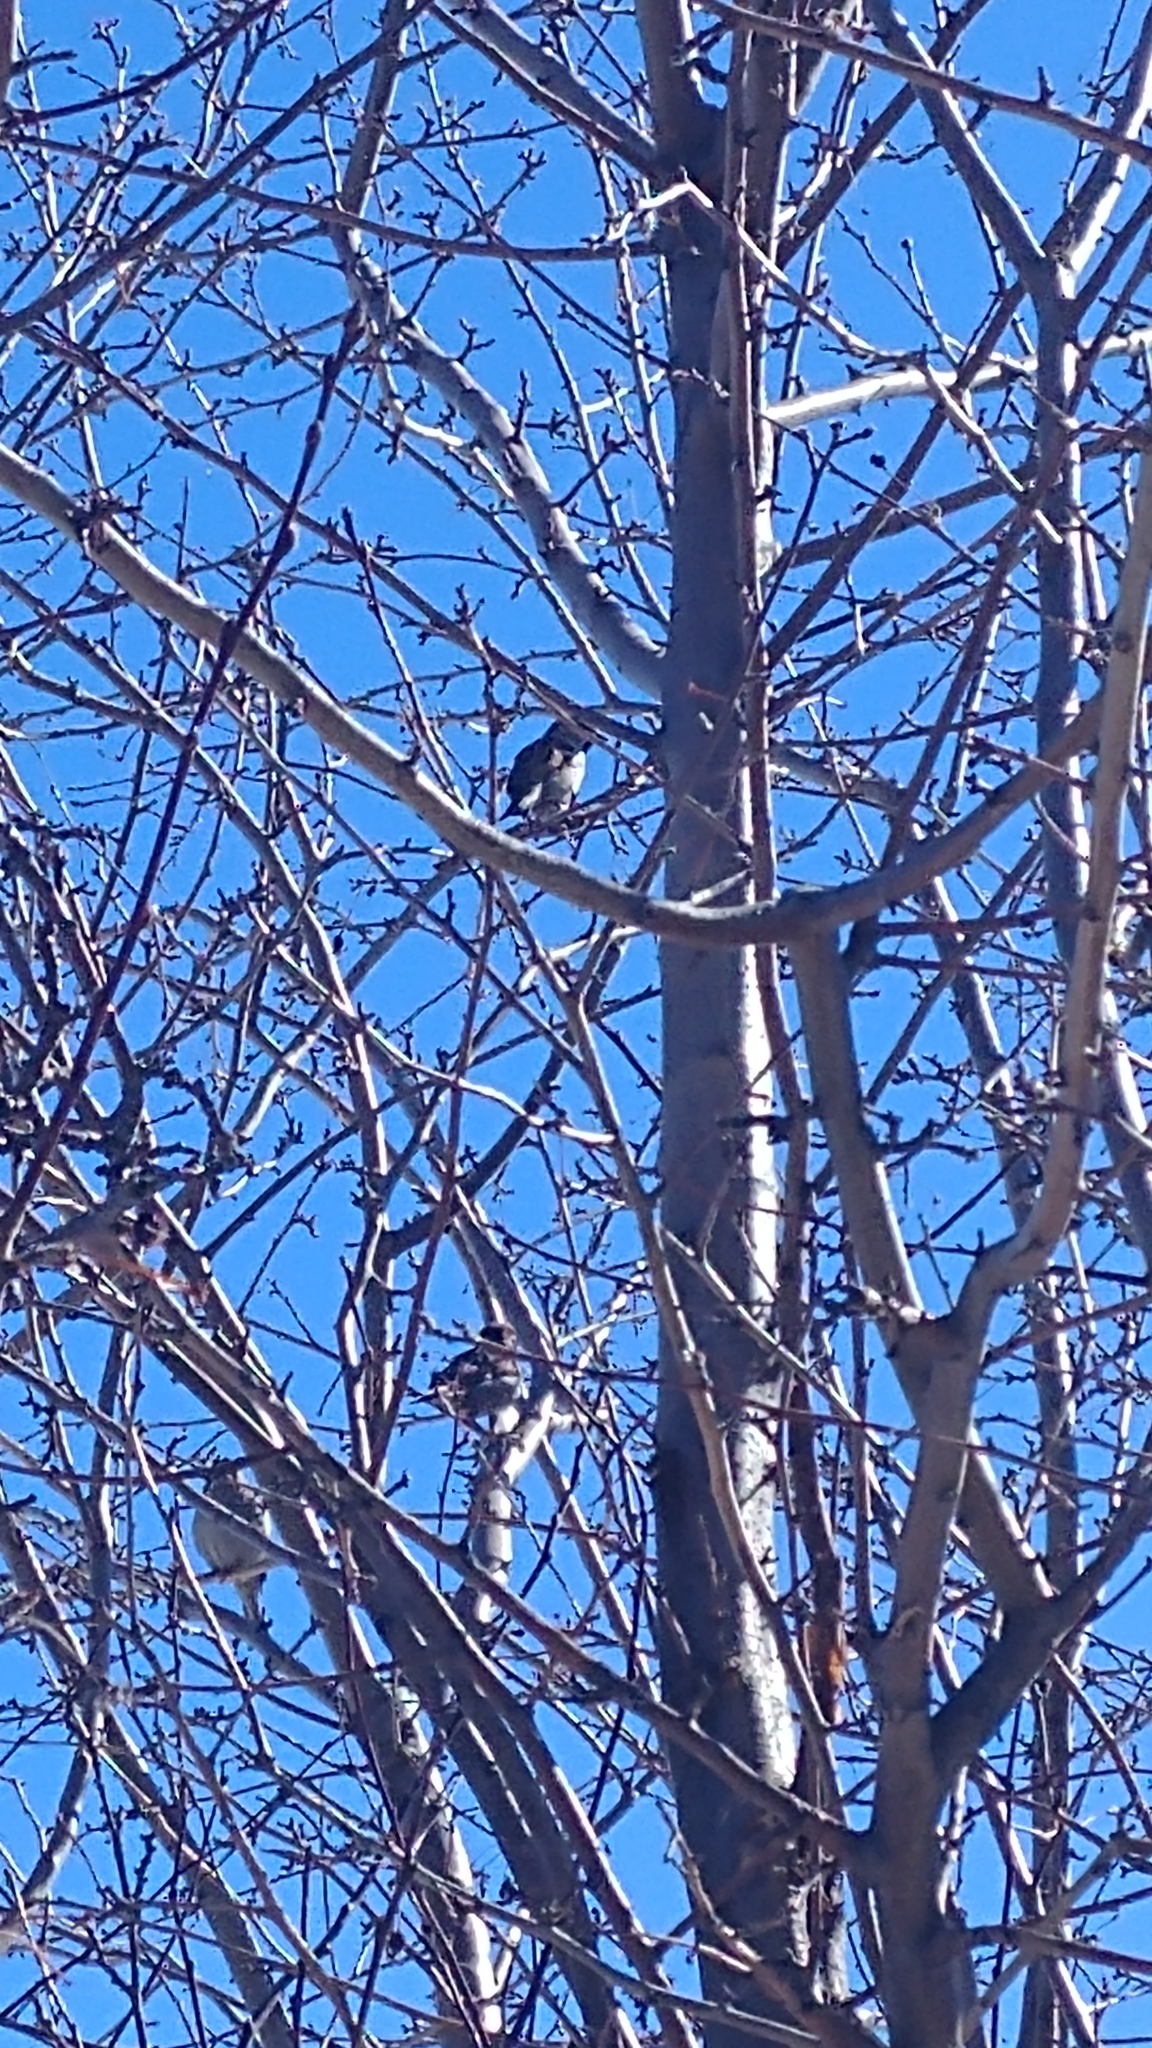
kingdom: Animalia
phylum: Chordata
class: Aves
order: Passeriformes
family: Passeridae
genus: Passer
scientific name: Passer domesticus
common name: House sparrow
